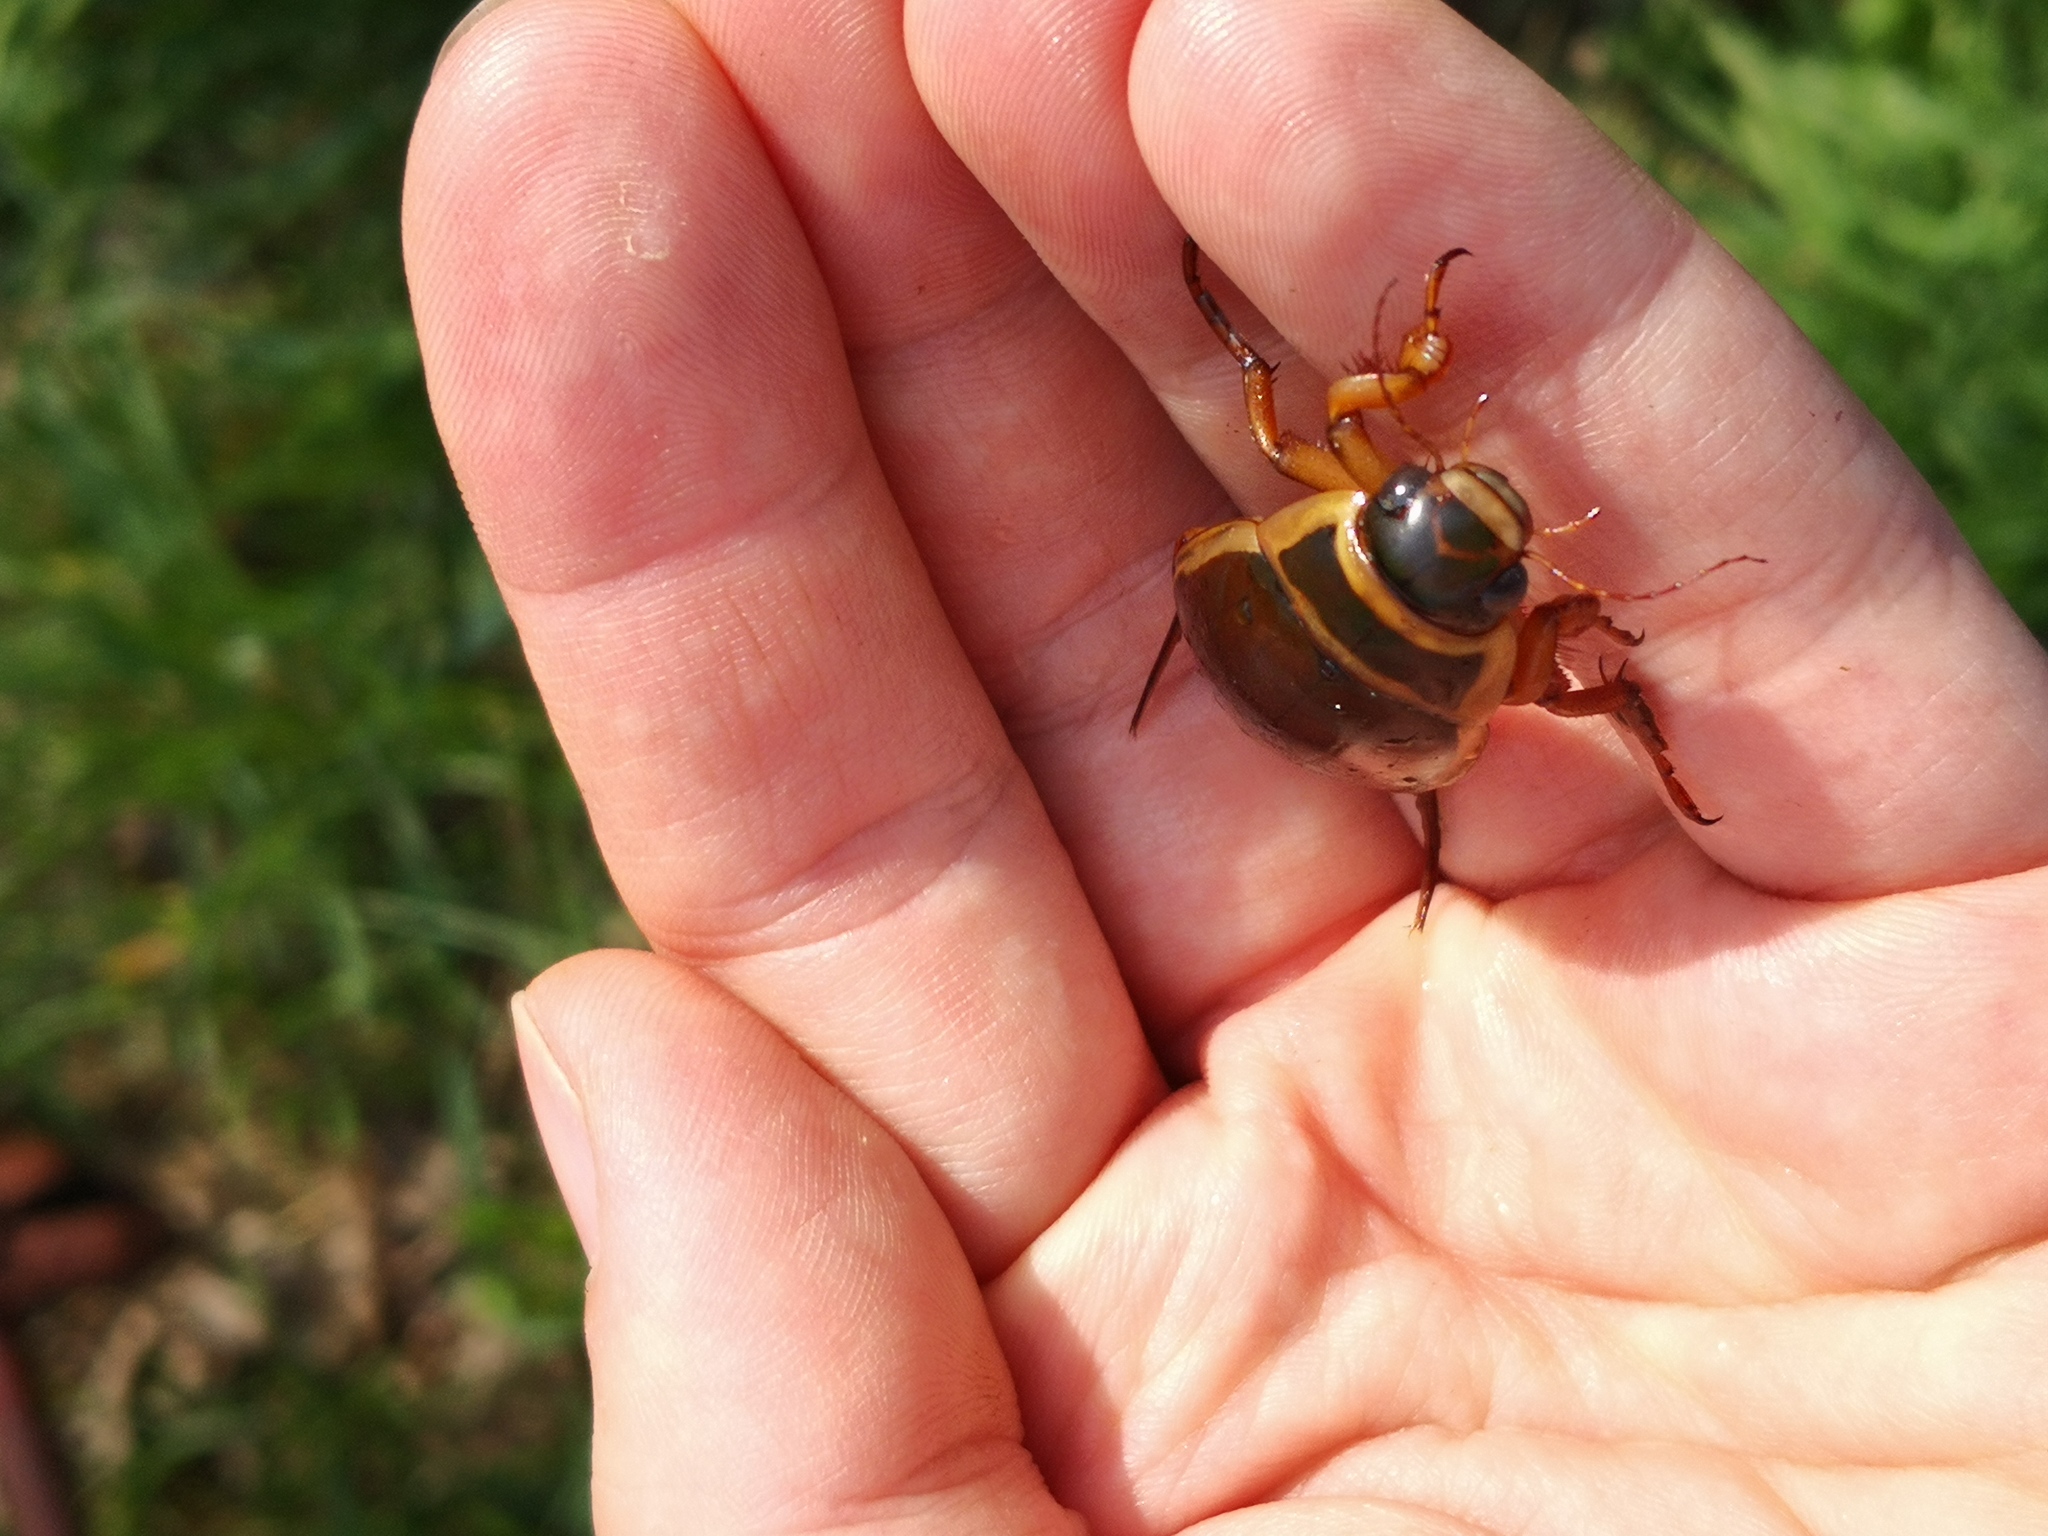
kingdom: Animalia
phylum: Arthropoda
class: Insecta
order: Coleoptera
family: Dytiscidae
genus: Dytiscus
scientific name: Dytiscus marginalis
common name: Great water beetle
